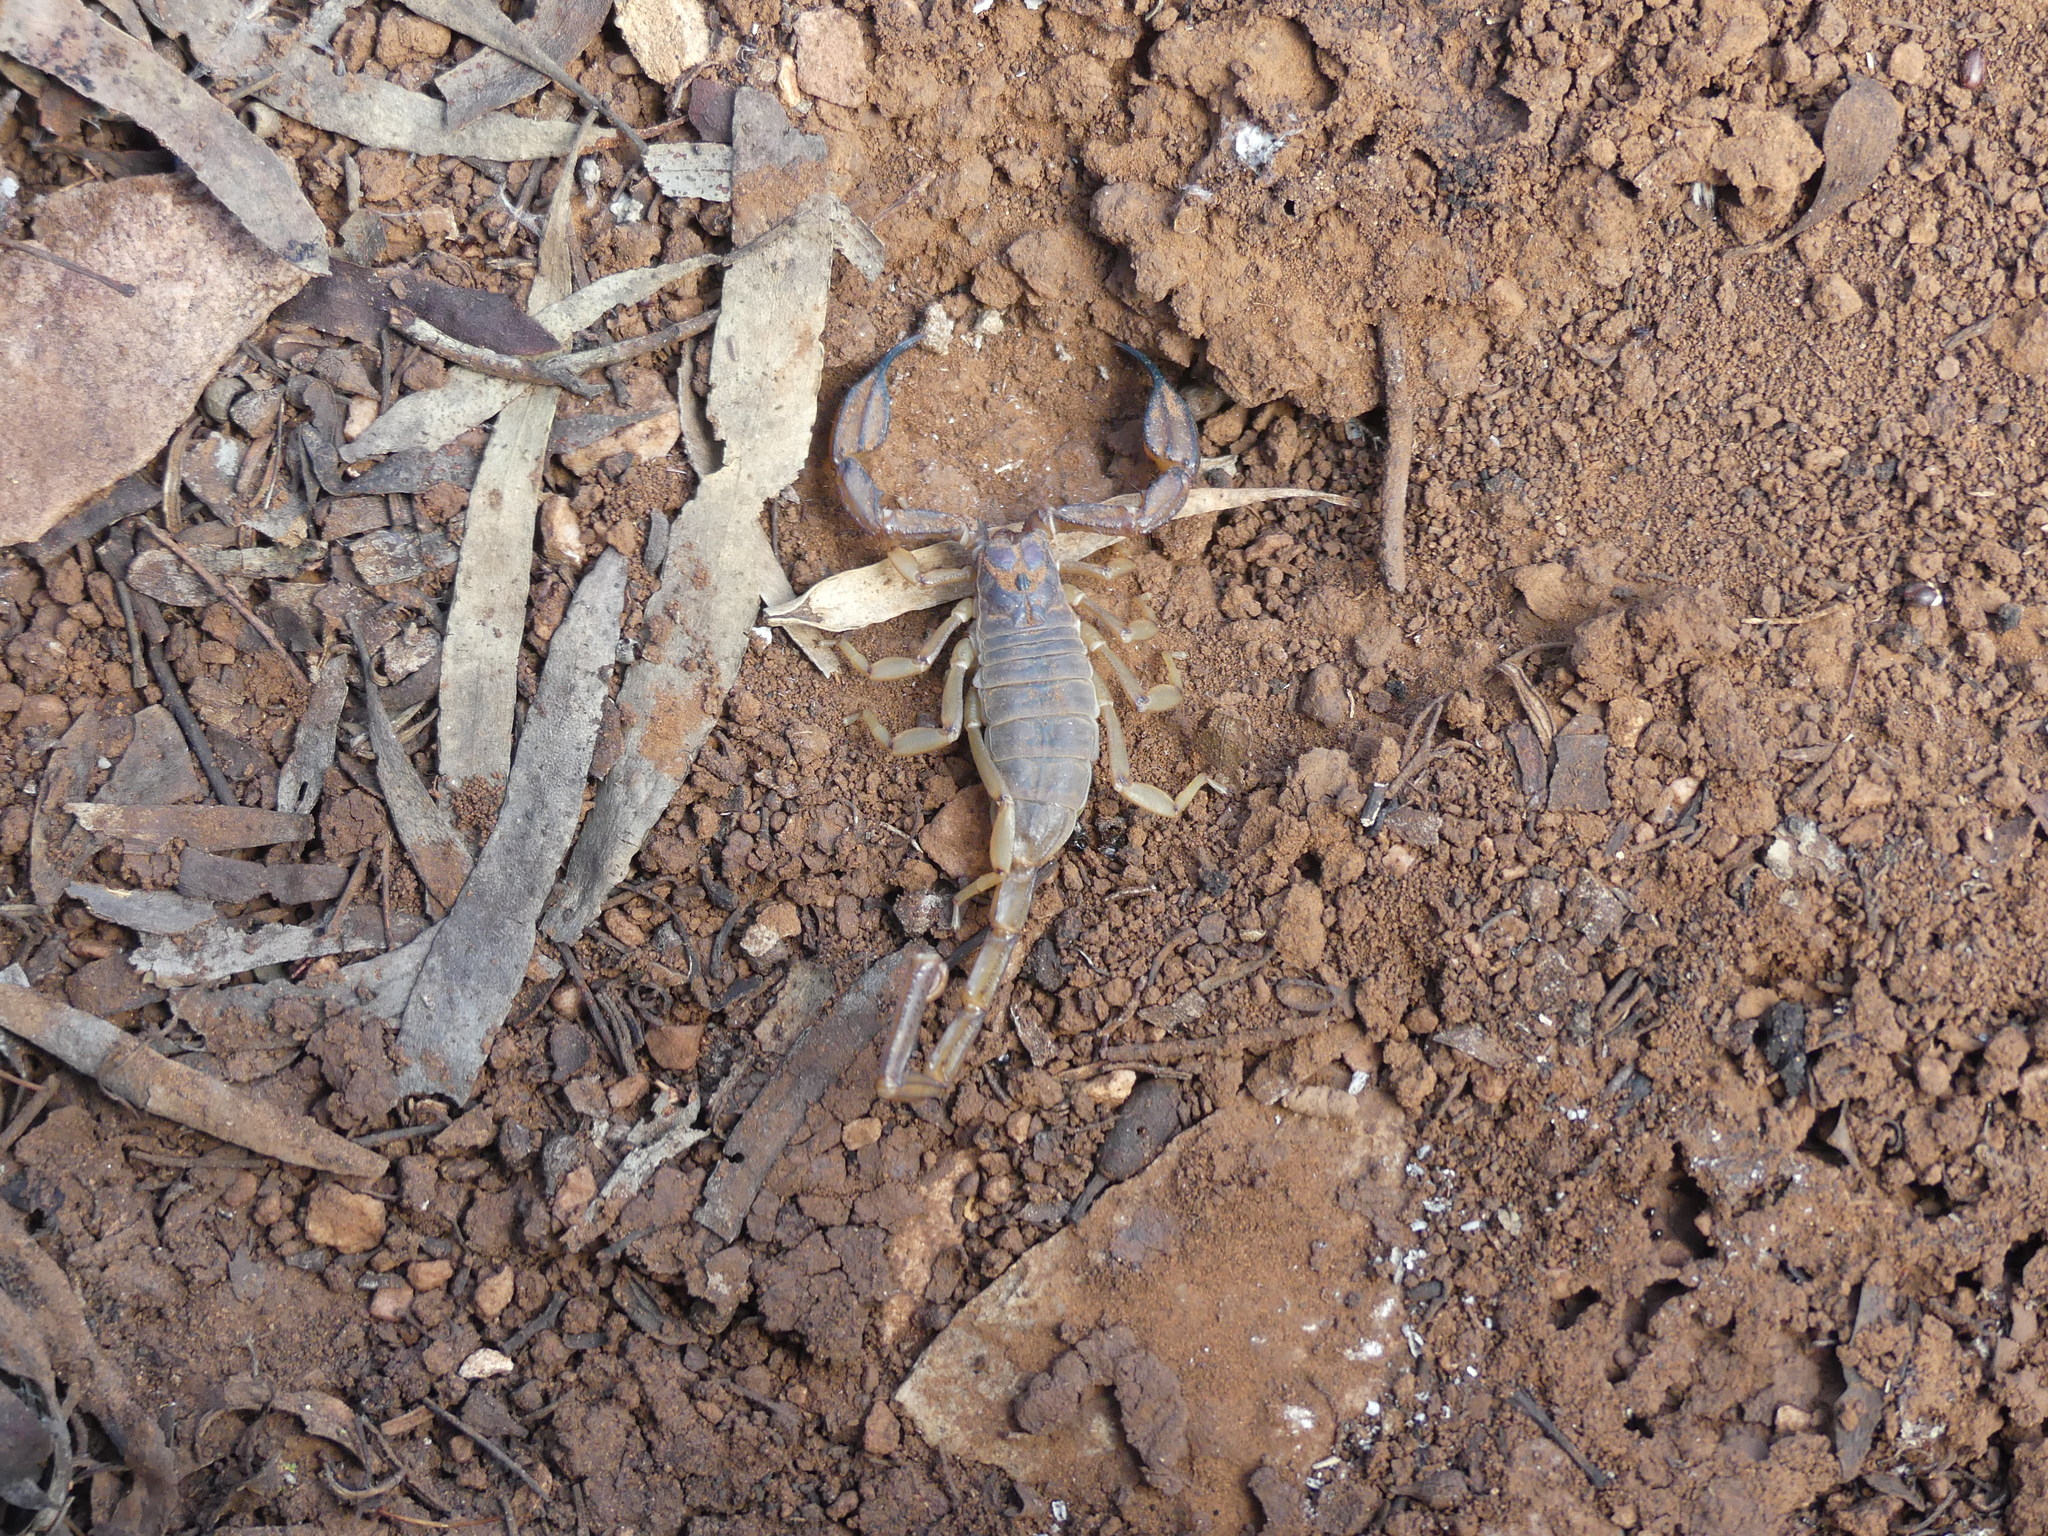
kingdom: Animalia
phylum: Arthropoda
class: Arachnida
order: Scorpiones
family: Scorpionidae
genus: Urodacus
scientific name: Urodacus elongatus
